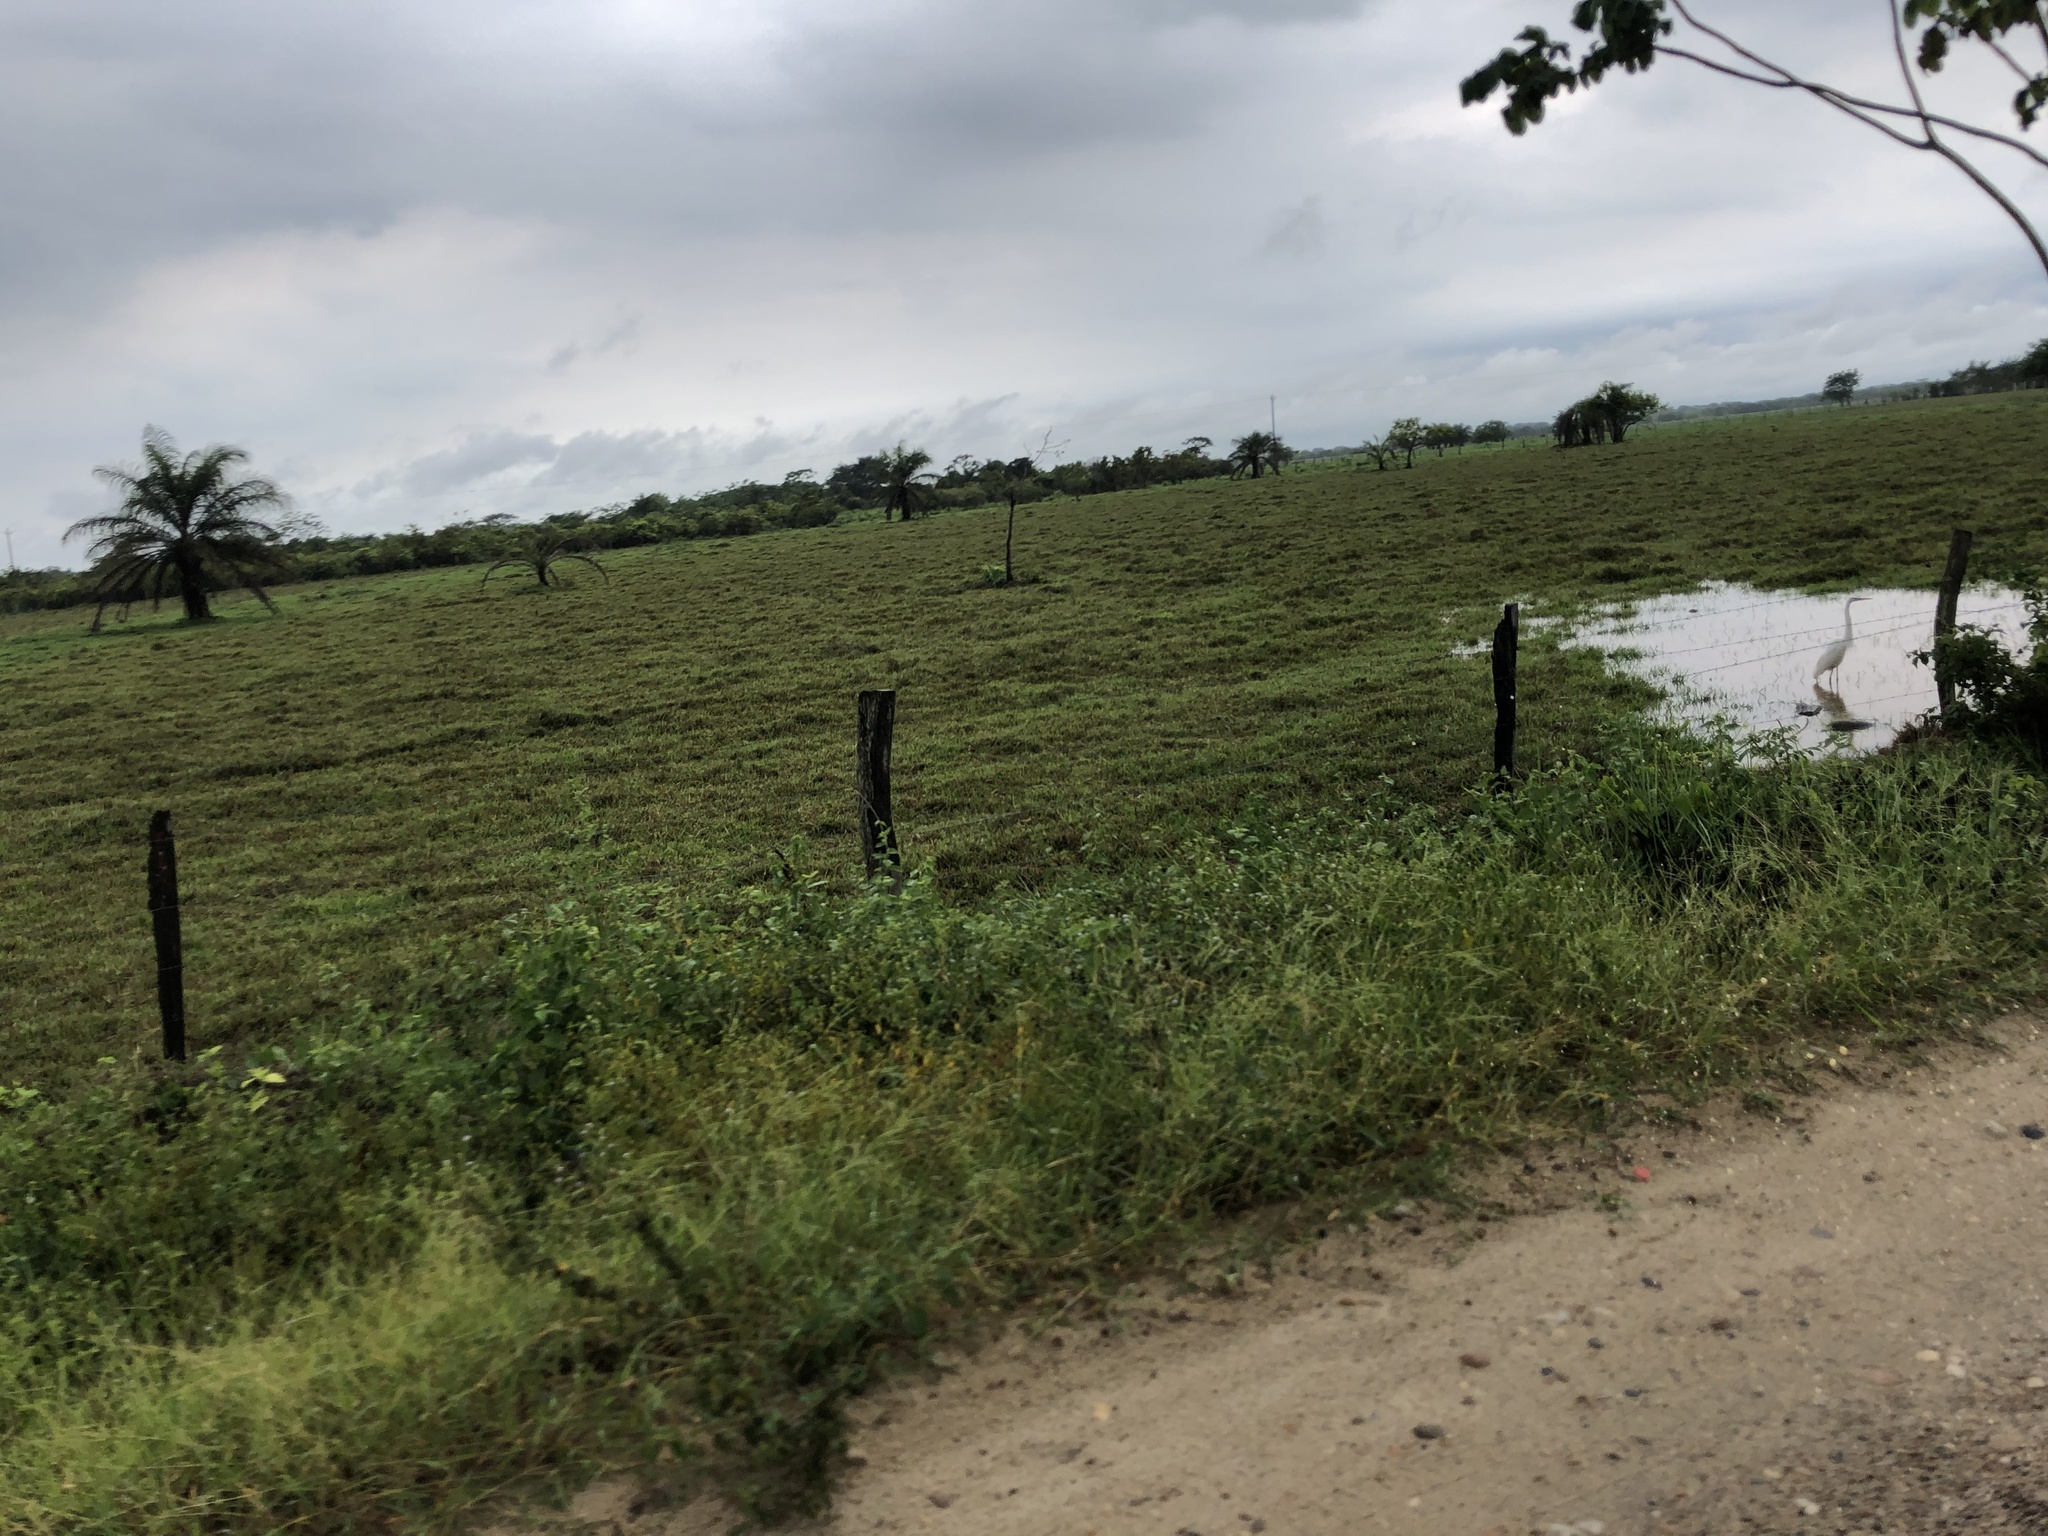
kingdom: Animalia
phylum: Chordata
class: Aves
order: Pelecaniformes
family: Ardeidae
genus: Ardea
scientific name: Ardea alba
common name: Great egret
